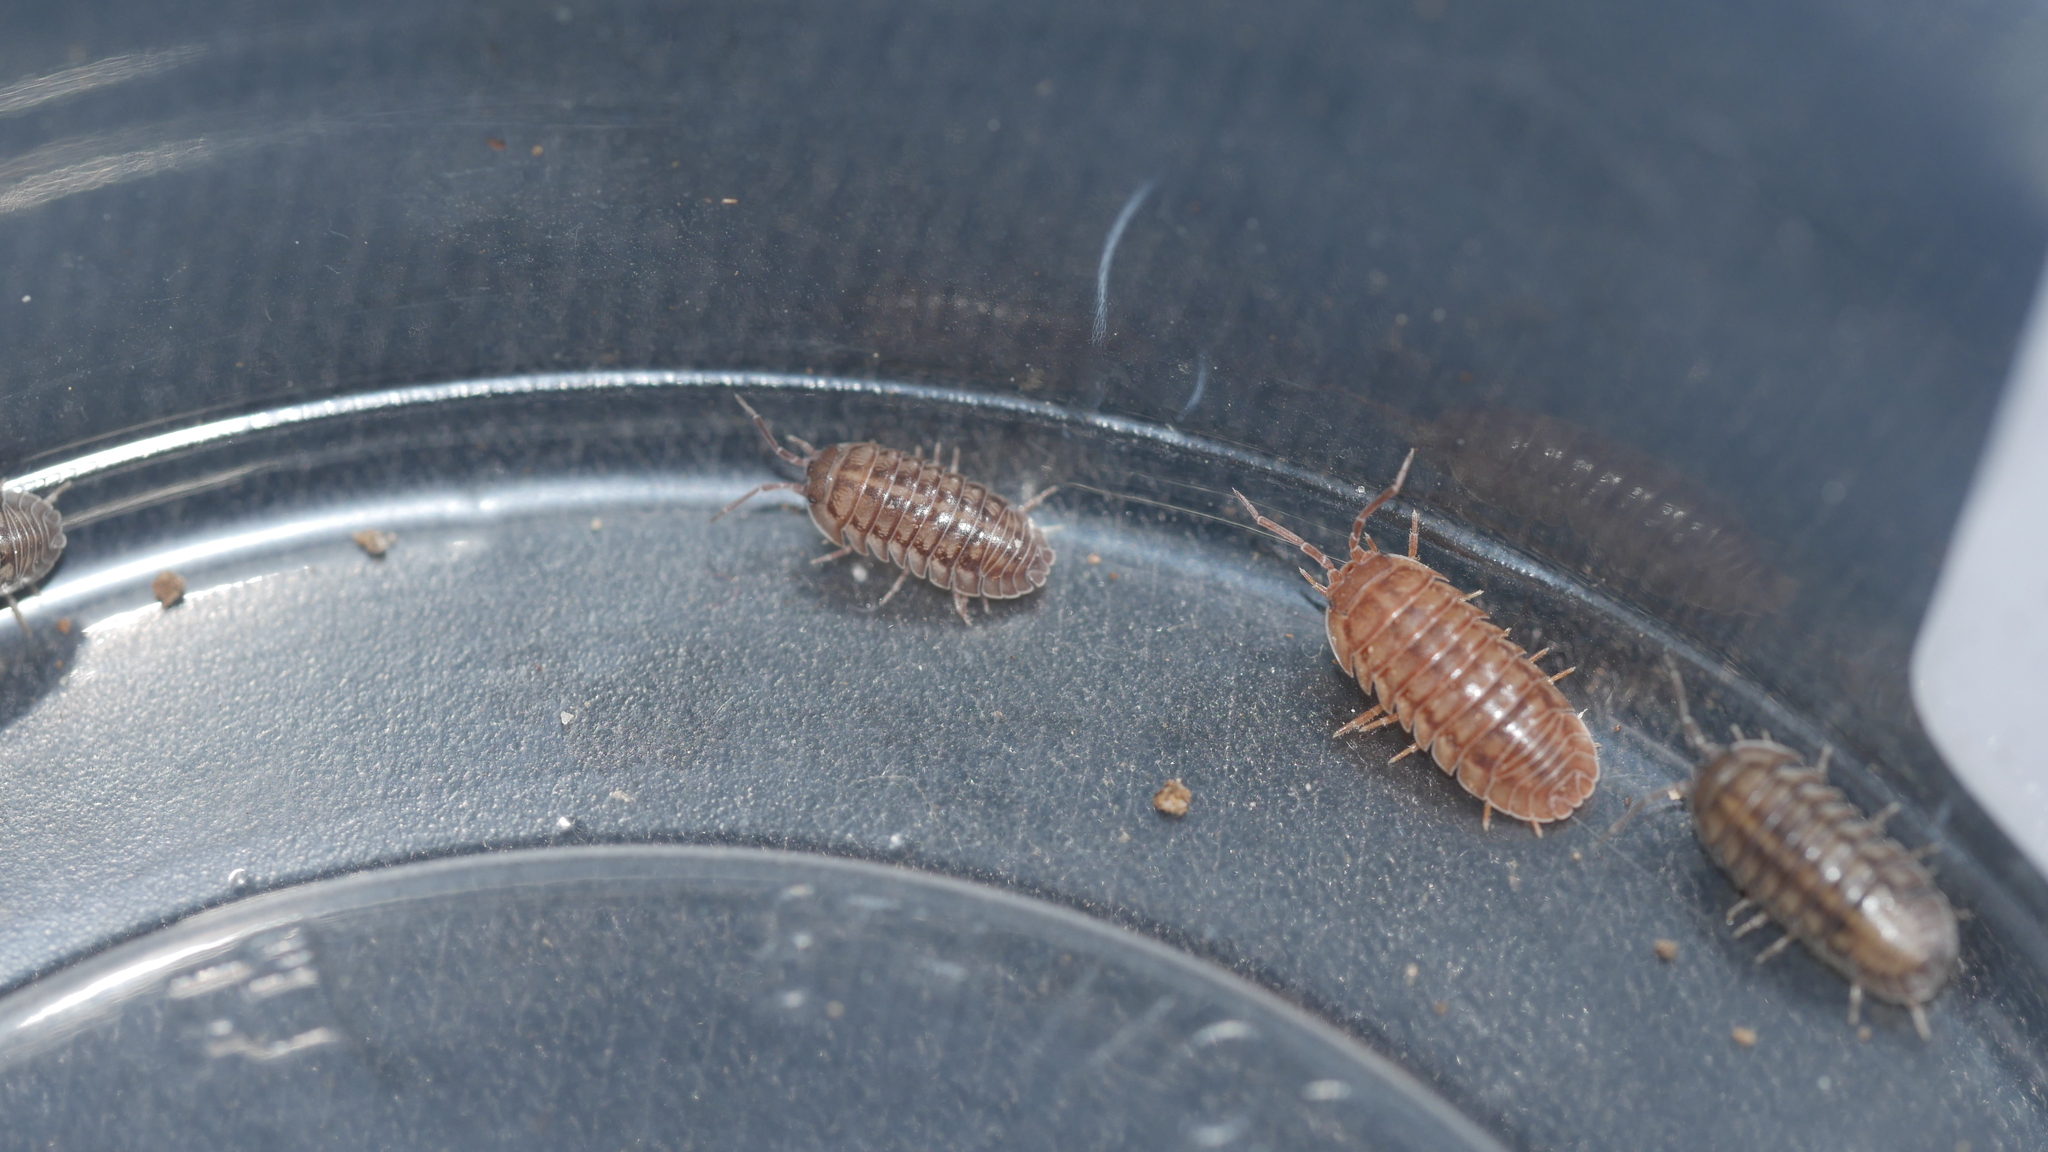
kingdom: Animalia
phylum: Arthropoda
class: Malacostraca
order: Isopoda
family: Armadillidiidae
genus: Armadillidium
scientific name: Armadillidium nasatum
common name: Isopod
